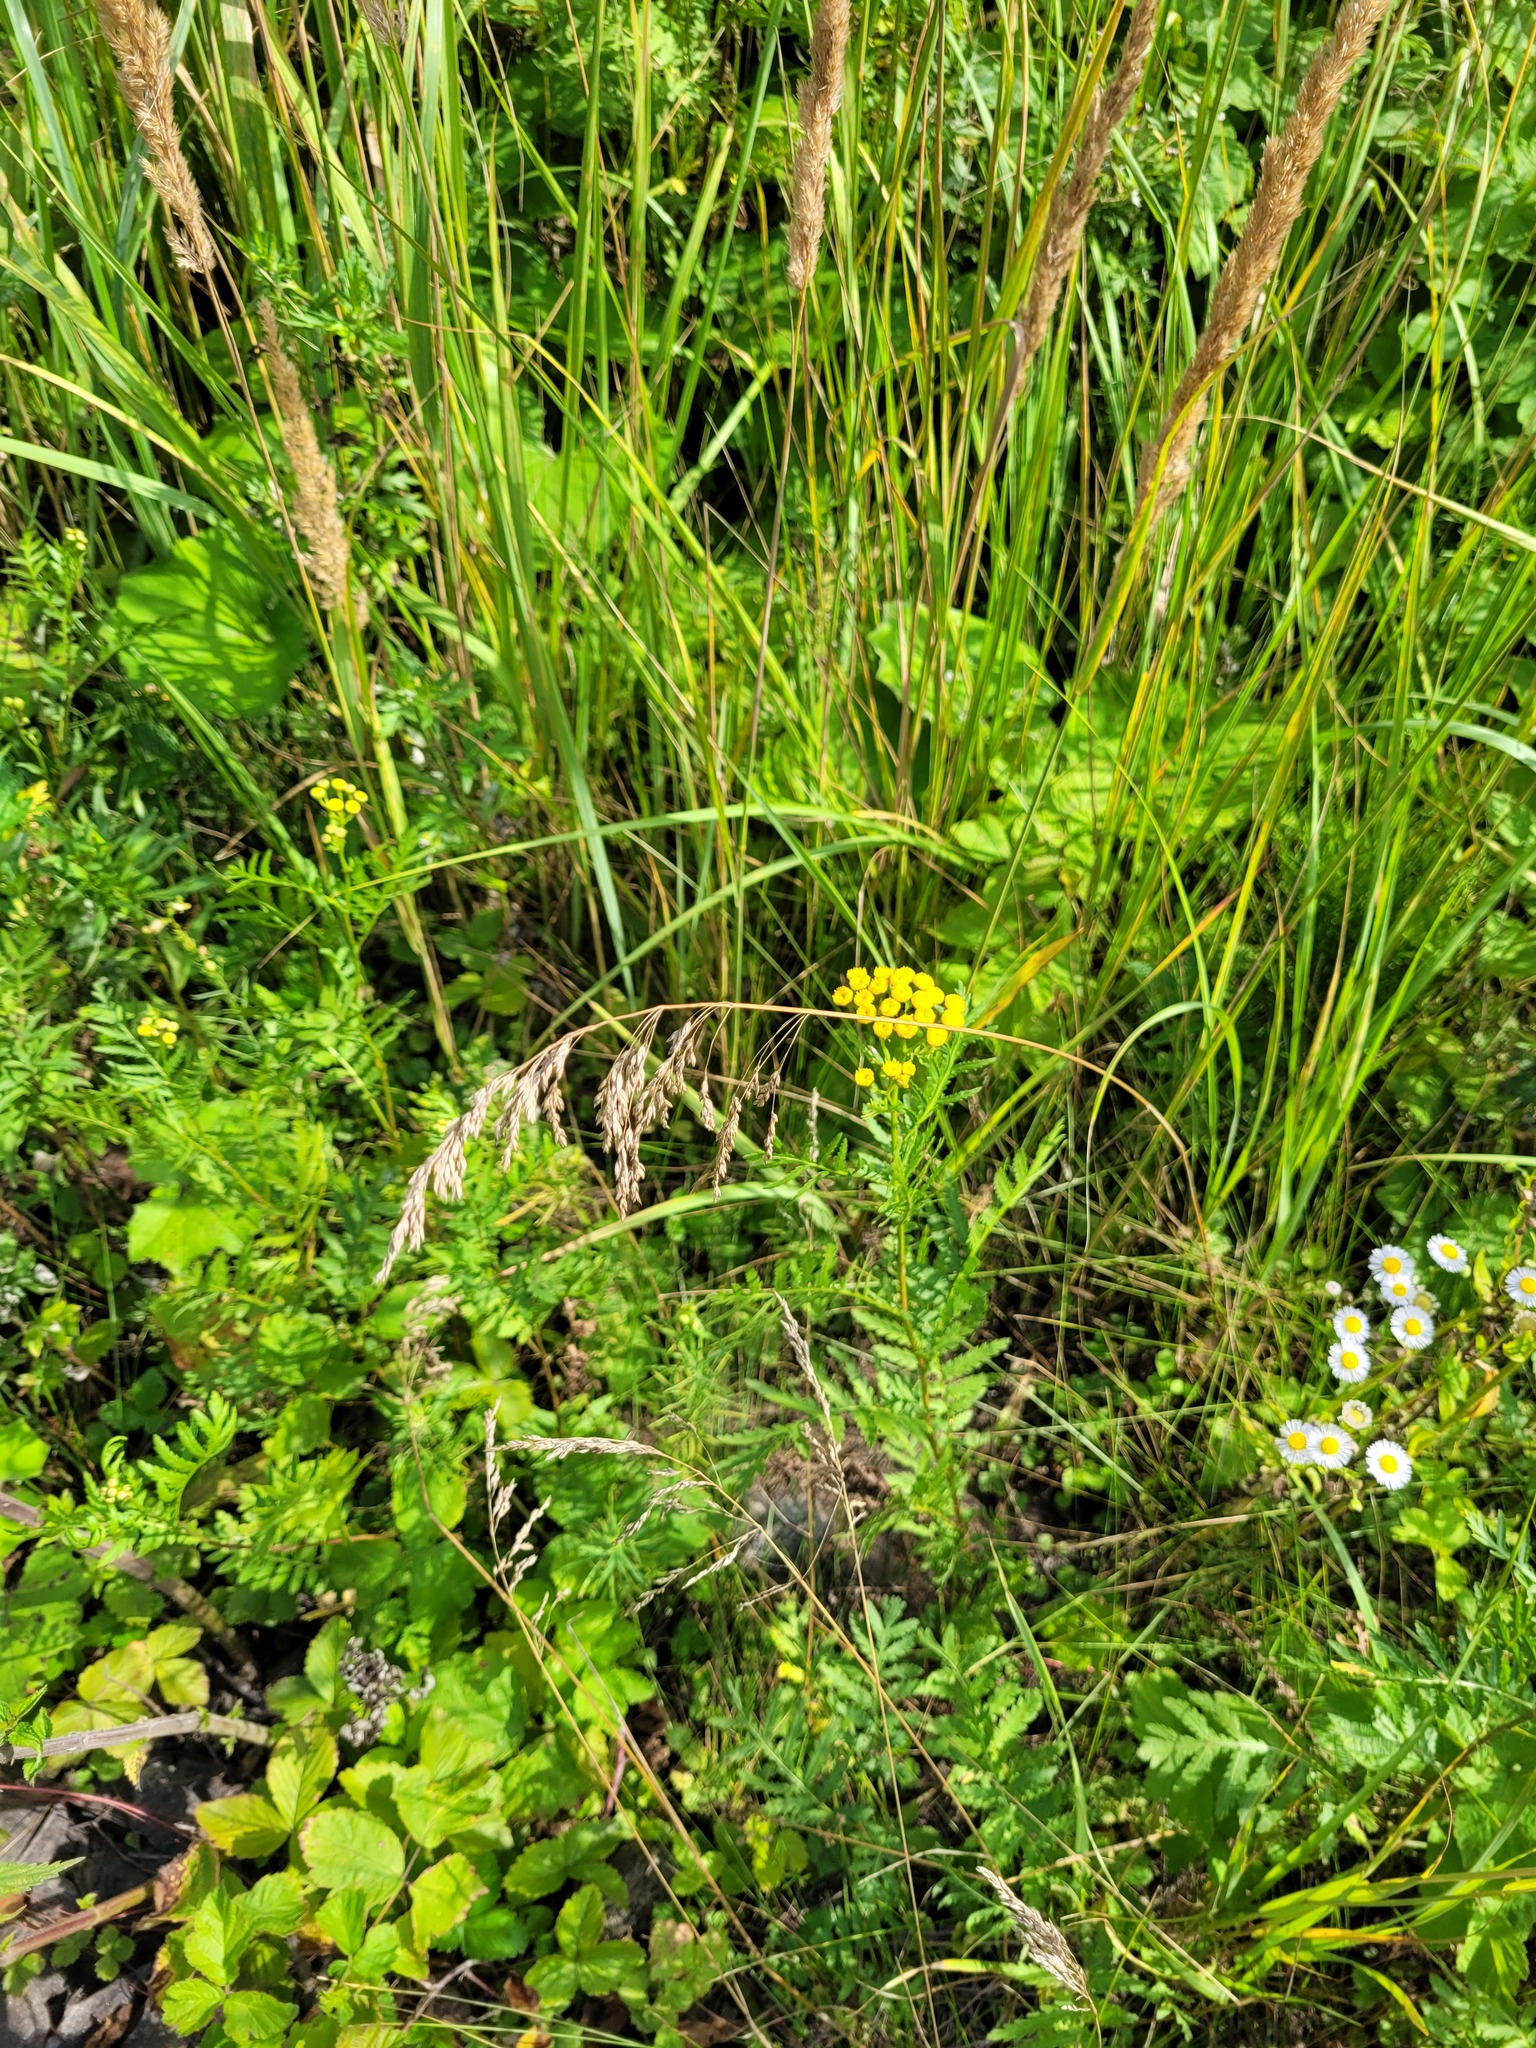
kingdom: Plantae
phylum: Tracheophyta
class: Liliopsida
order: Poales
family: Poaceae
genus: Poa
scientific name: Poa angustifolia
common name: Narrow-leaved meadow-grass
